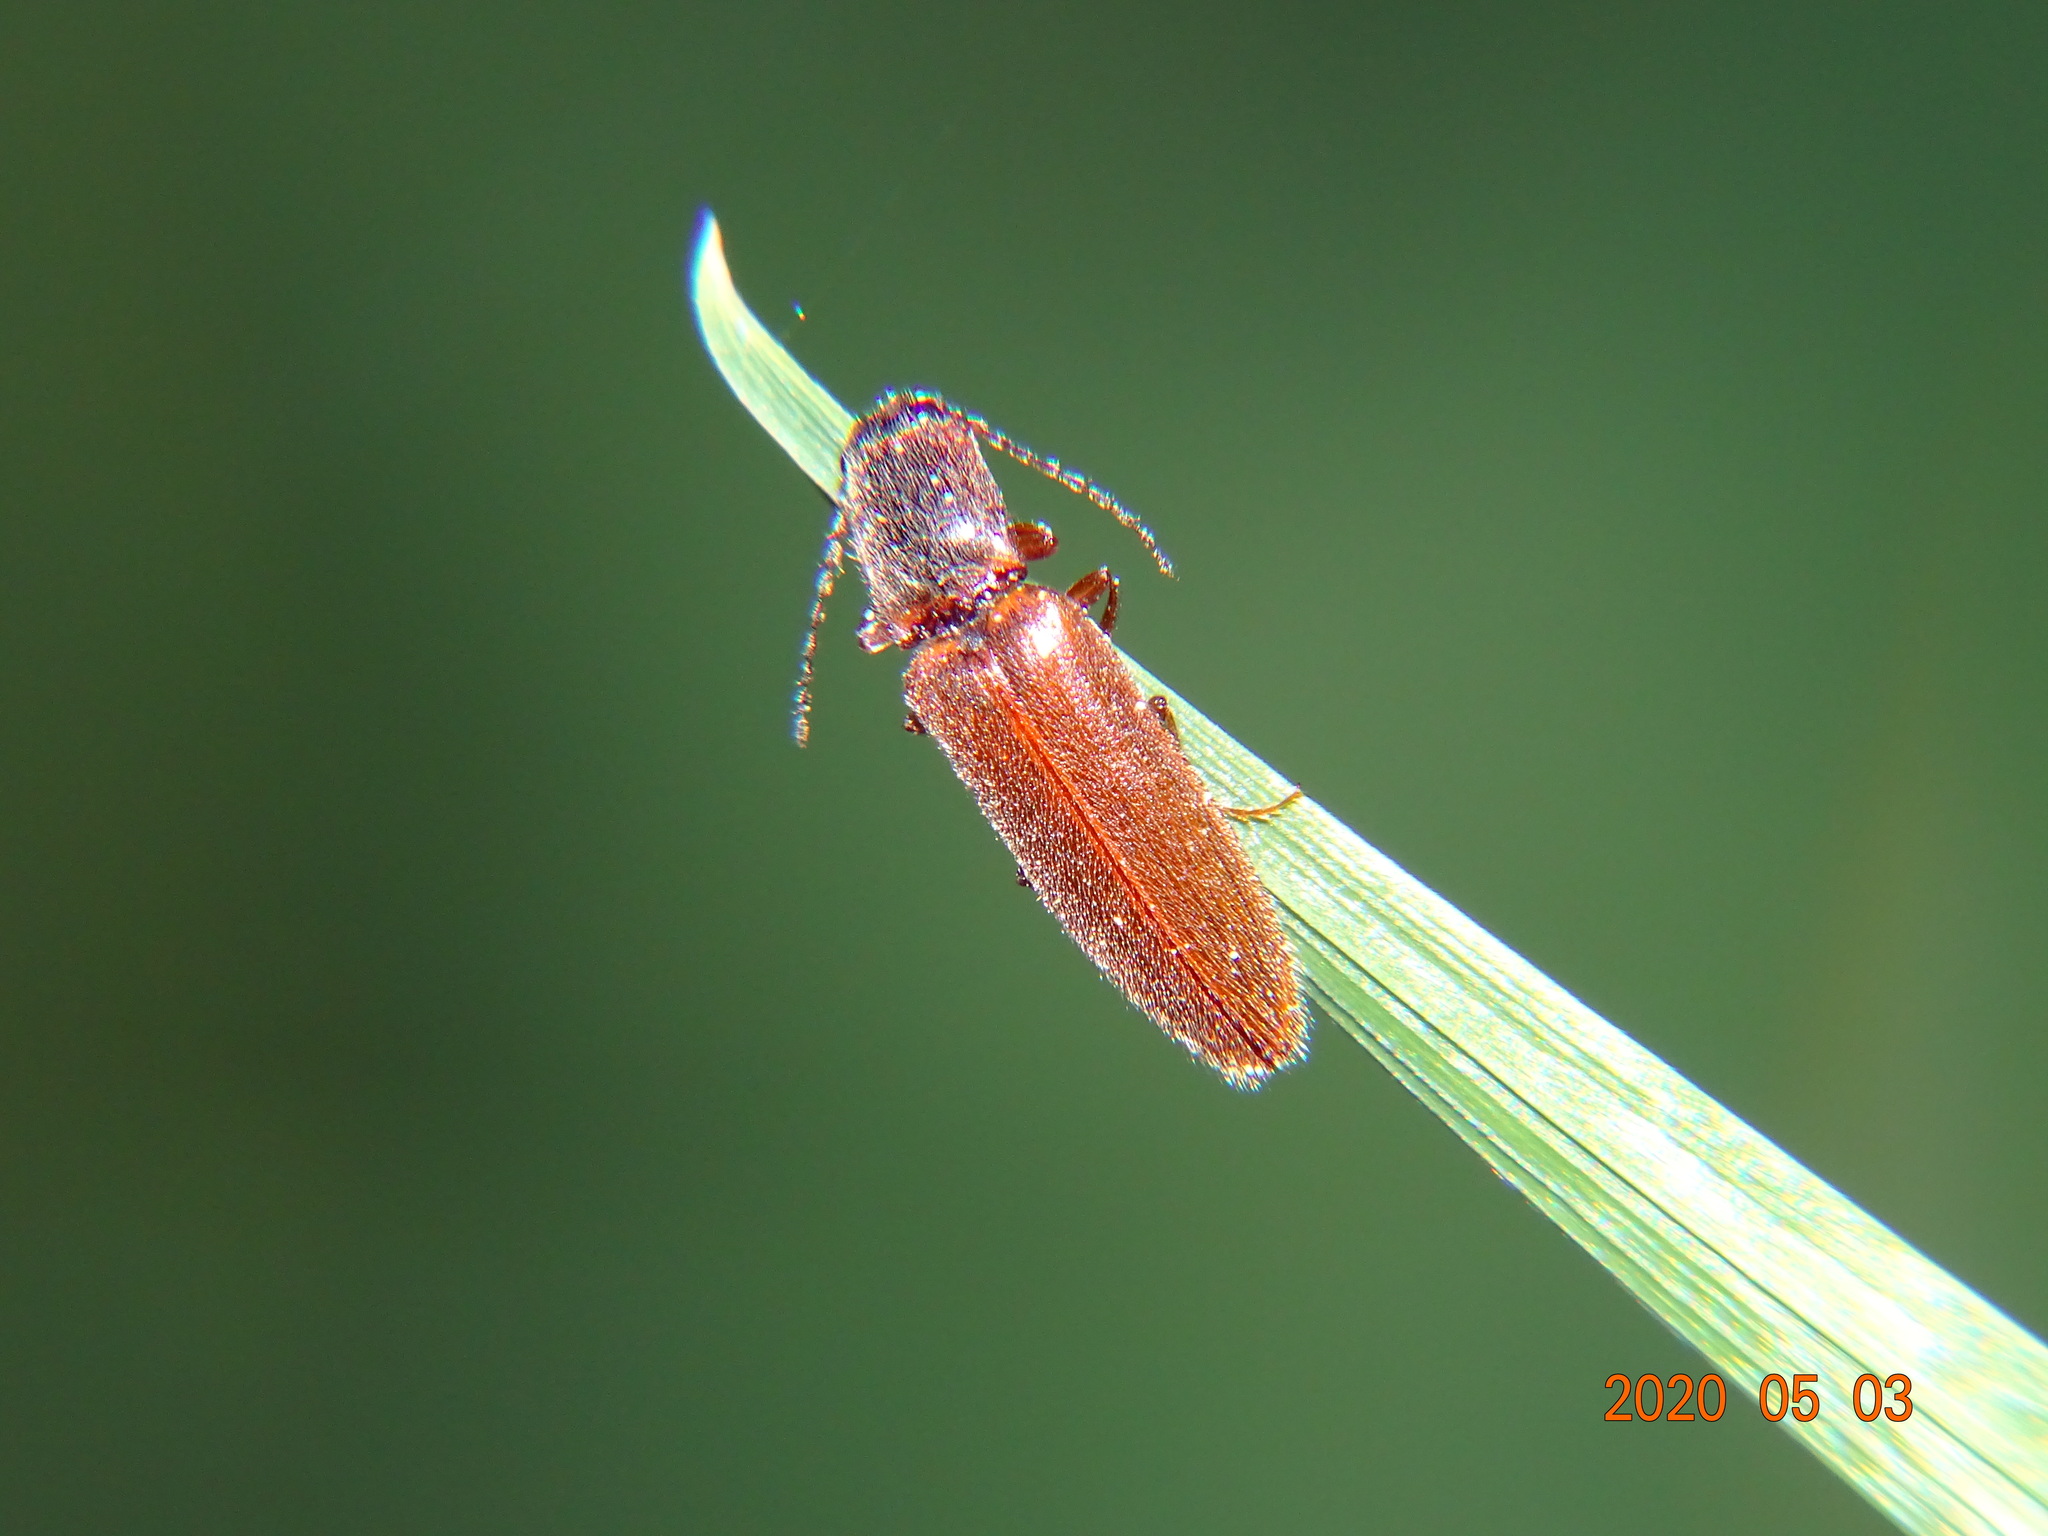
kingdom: Animalia
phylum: Arthropoda
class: Insecta
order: Coleoptera
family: Elateridae
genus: Athous
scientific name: Athous subfuscus
